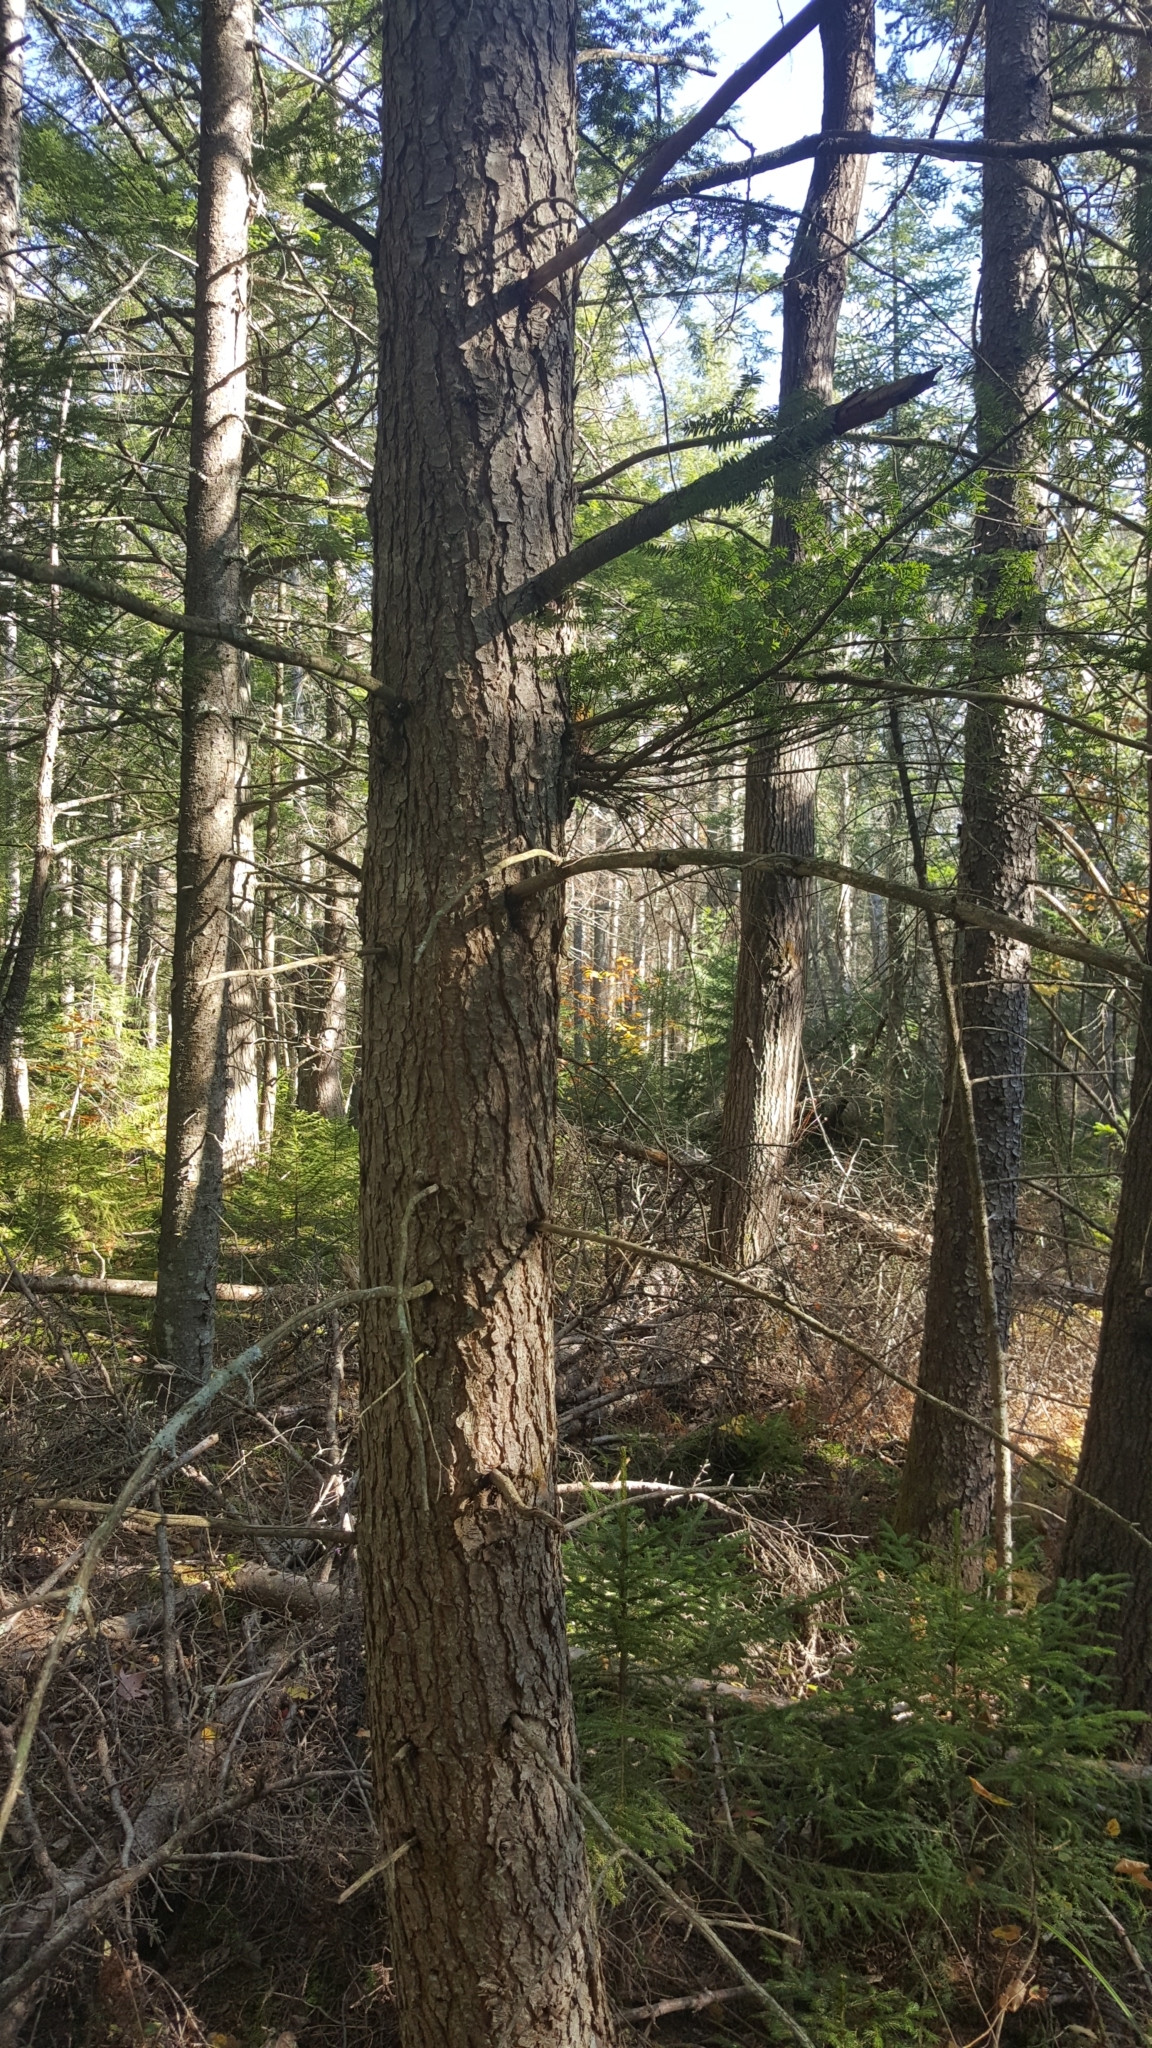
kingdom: Plantae
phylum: Tracheophyta
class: Pinopsida
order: Pinales
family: Pinaceae
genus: Tsuga
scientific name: Tsuga canadensis
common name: Eastern hemlock
